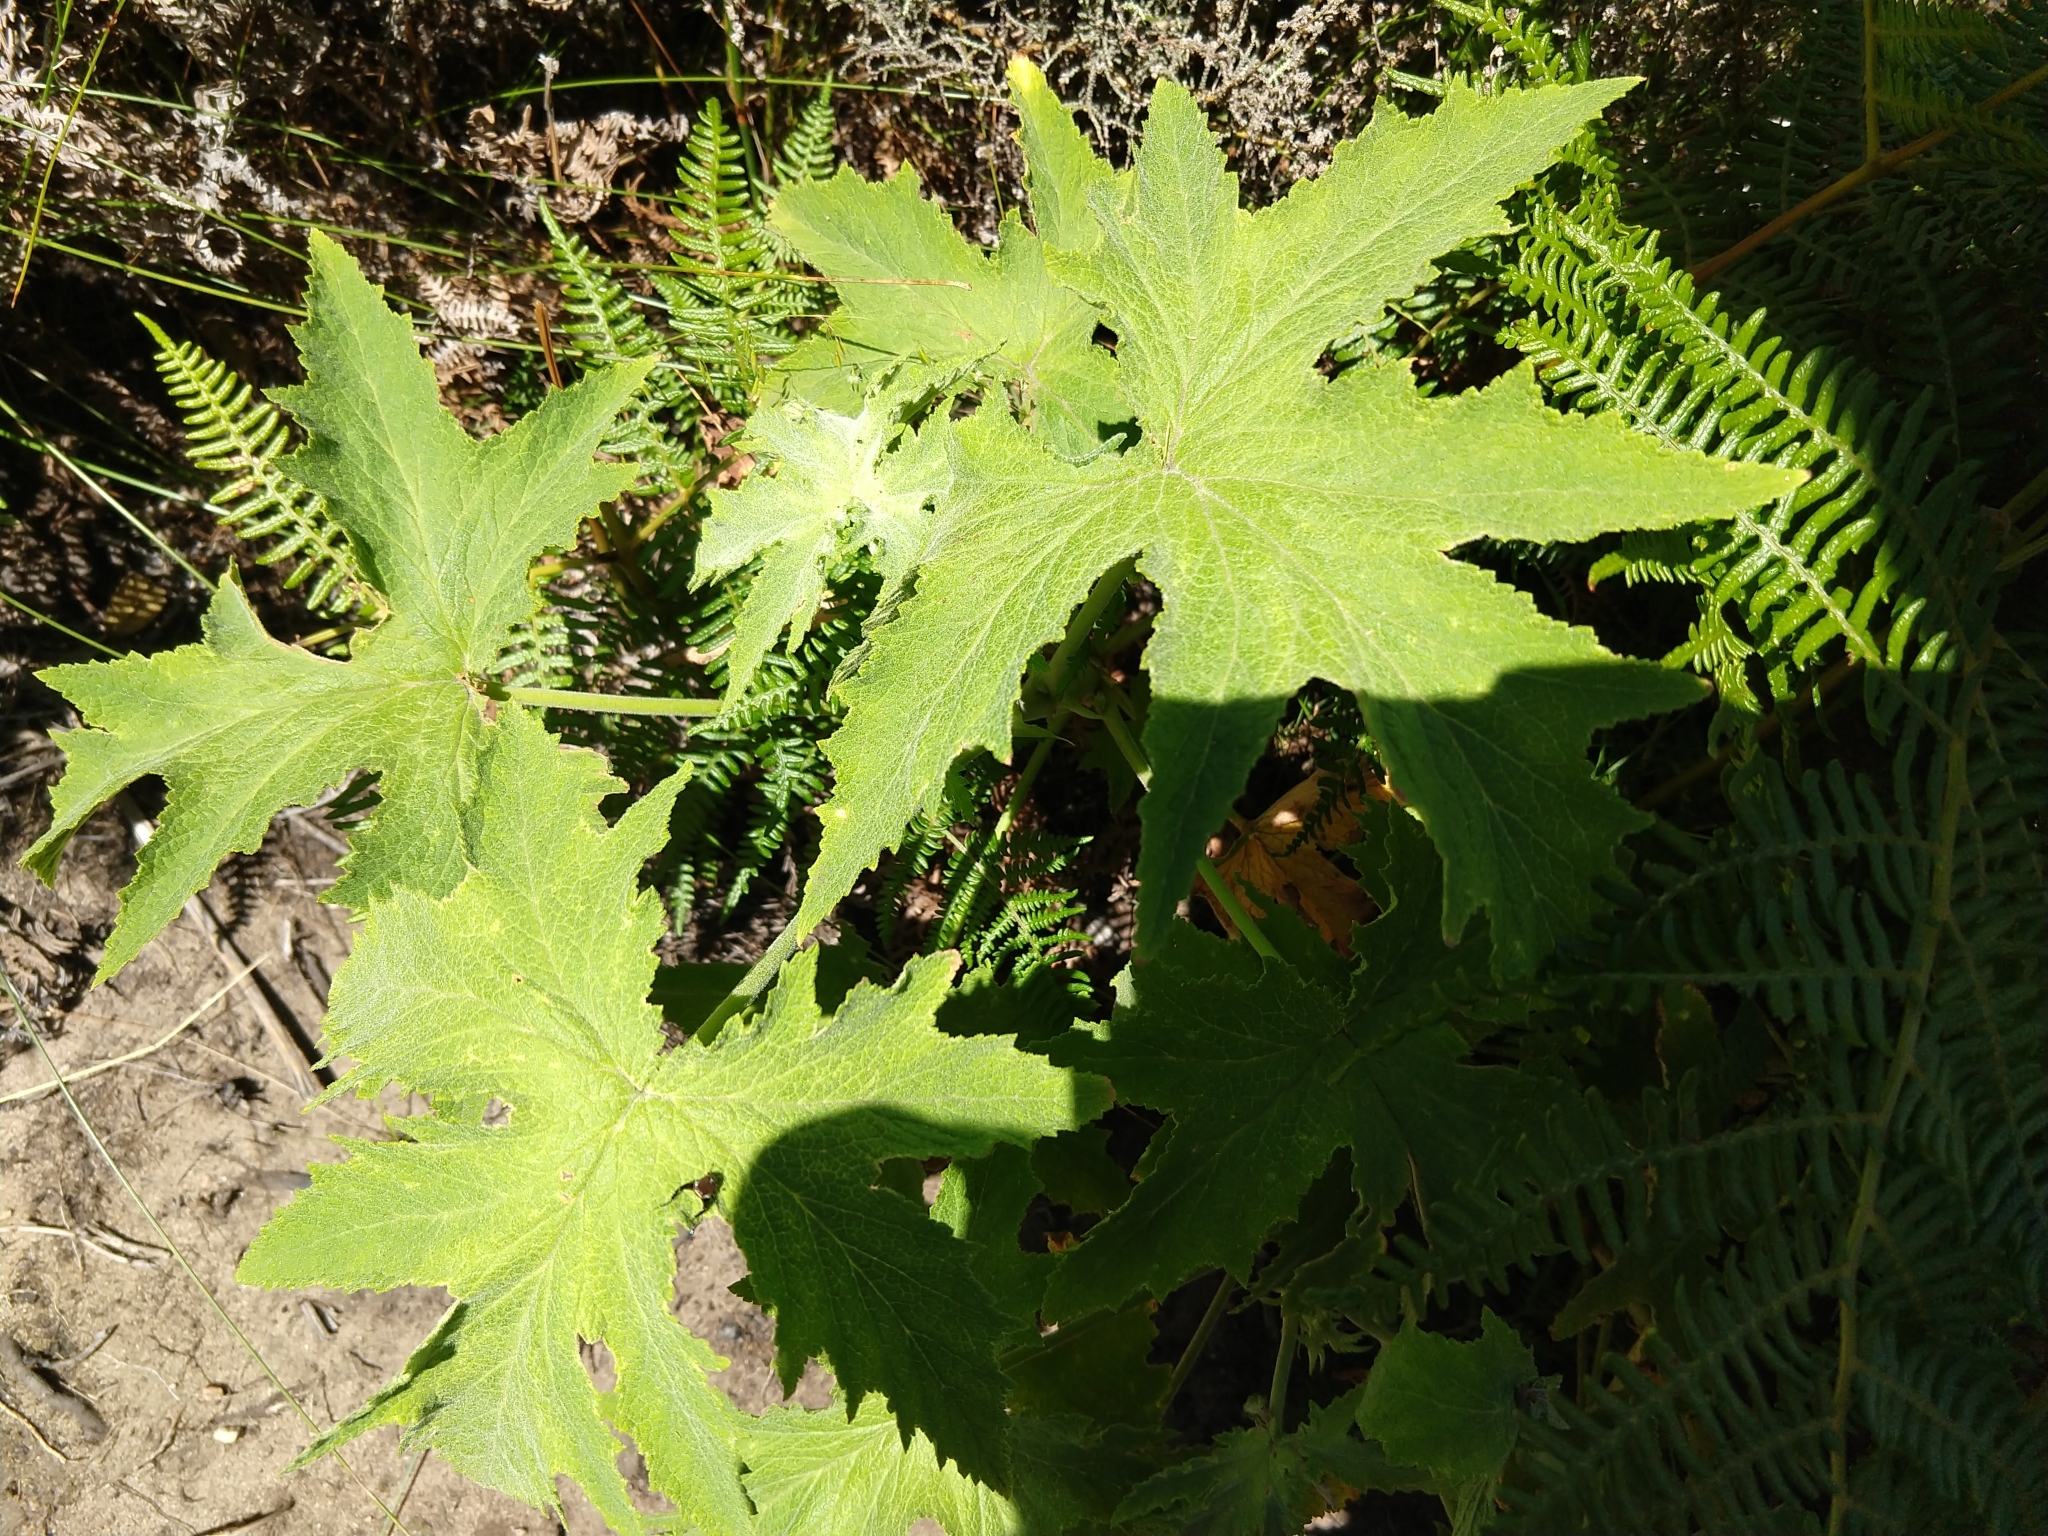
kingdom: Plantae
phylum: Tracheophyta
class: Magnoliopsida
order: Geraniales
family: Geraniaceae
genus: Pelargonium
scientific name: Pelargonium hispidum
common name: Hispid pelargonium
